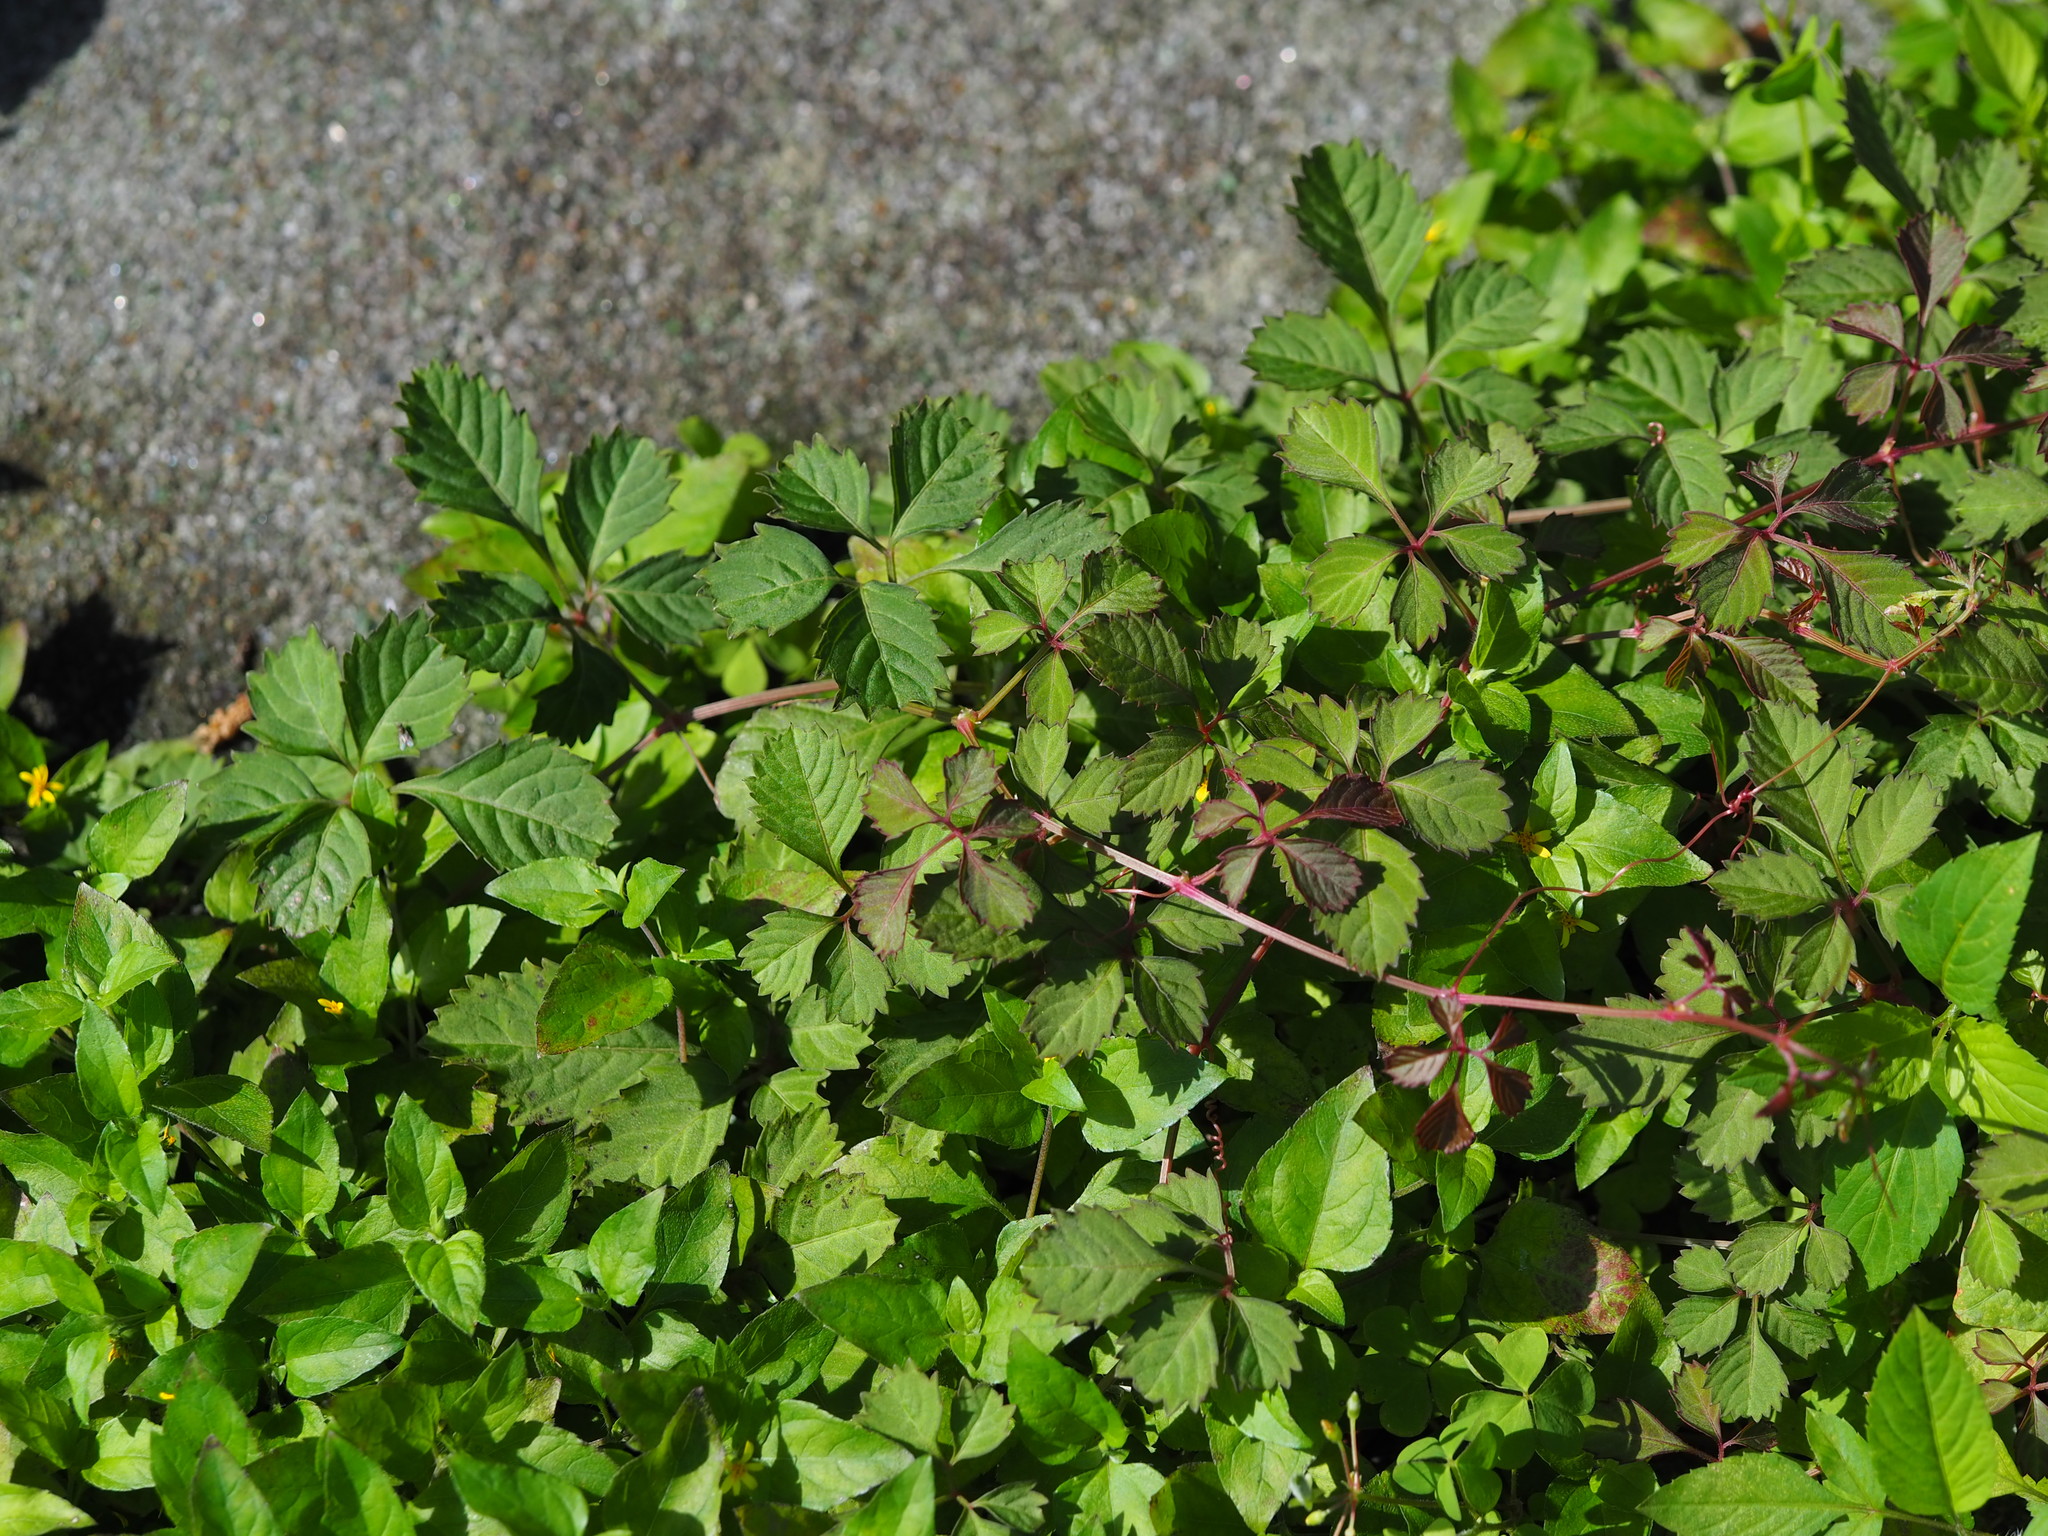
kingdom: Plantae
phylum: Tracheophyta
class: Magnoliopsida
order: Vitales
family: Vitaceae
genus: Causonis
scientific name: Causonis japonica
